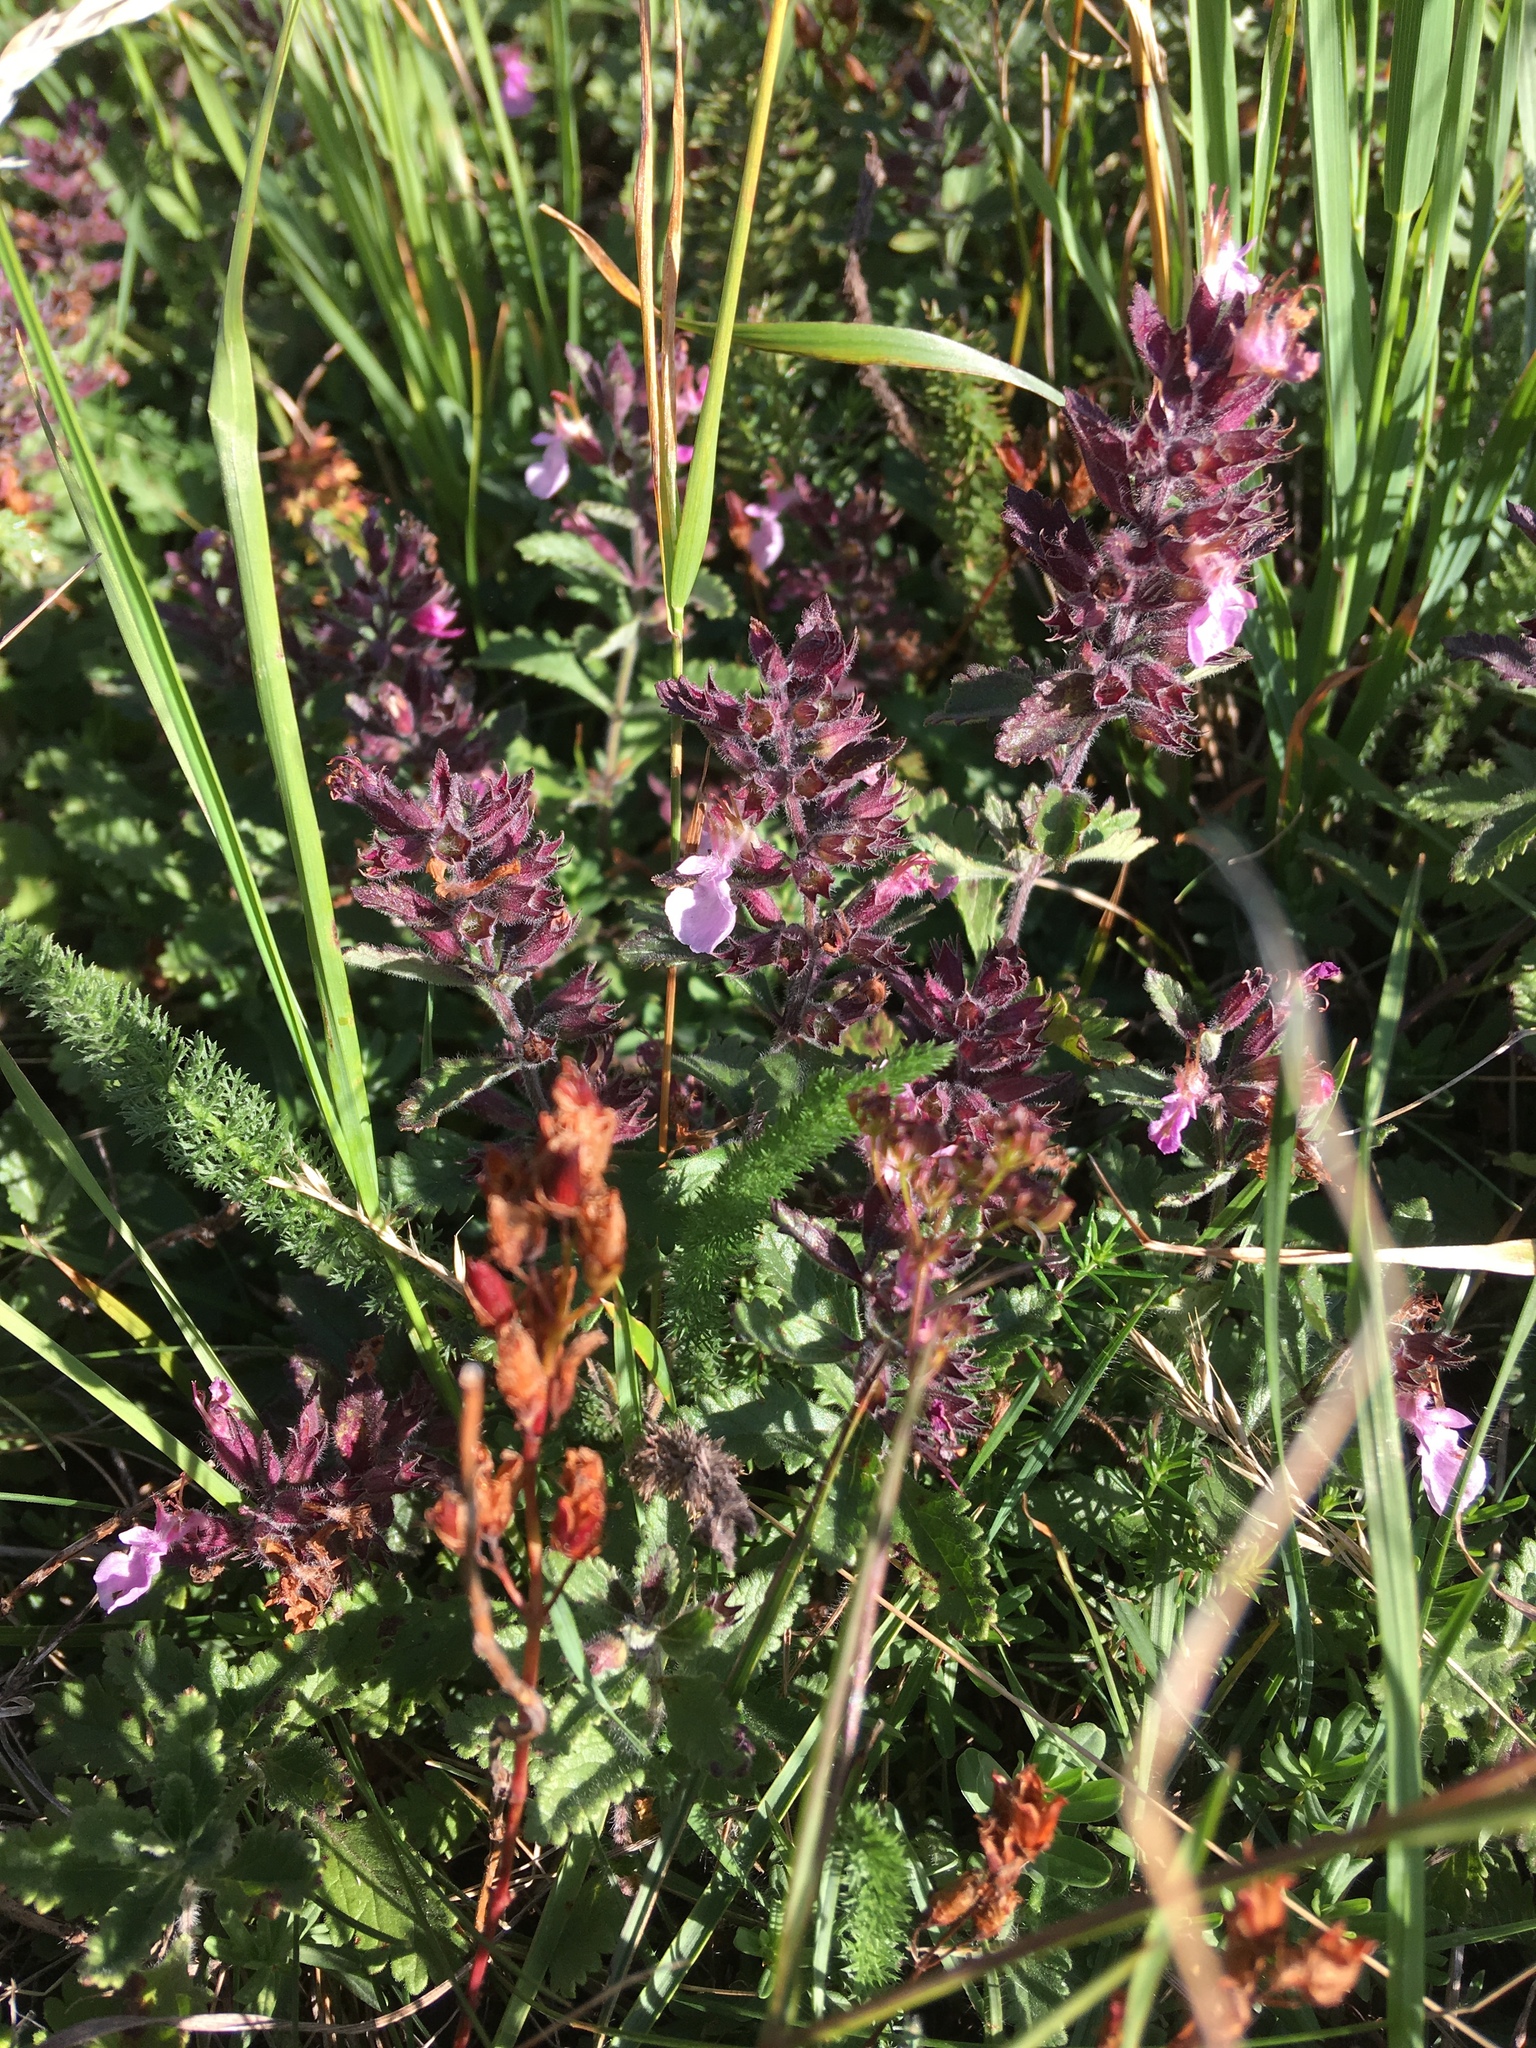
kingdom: Plantae
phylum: Tracheophyta
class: Magnoliopsida
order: Lamiales
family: Lamiaceae
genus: Teucrium
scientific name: Teucrium chamaedrys
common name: Wall germander
